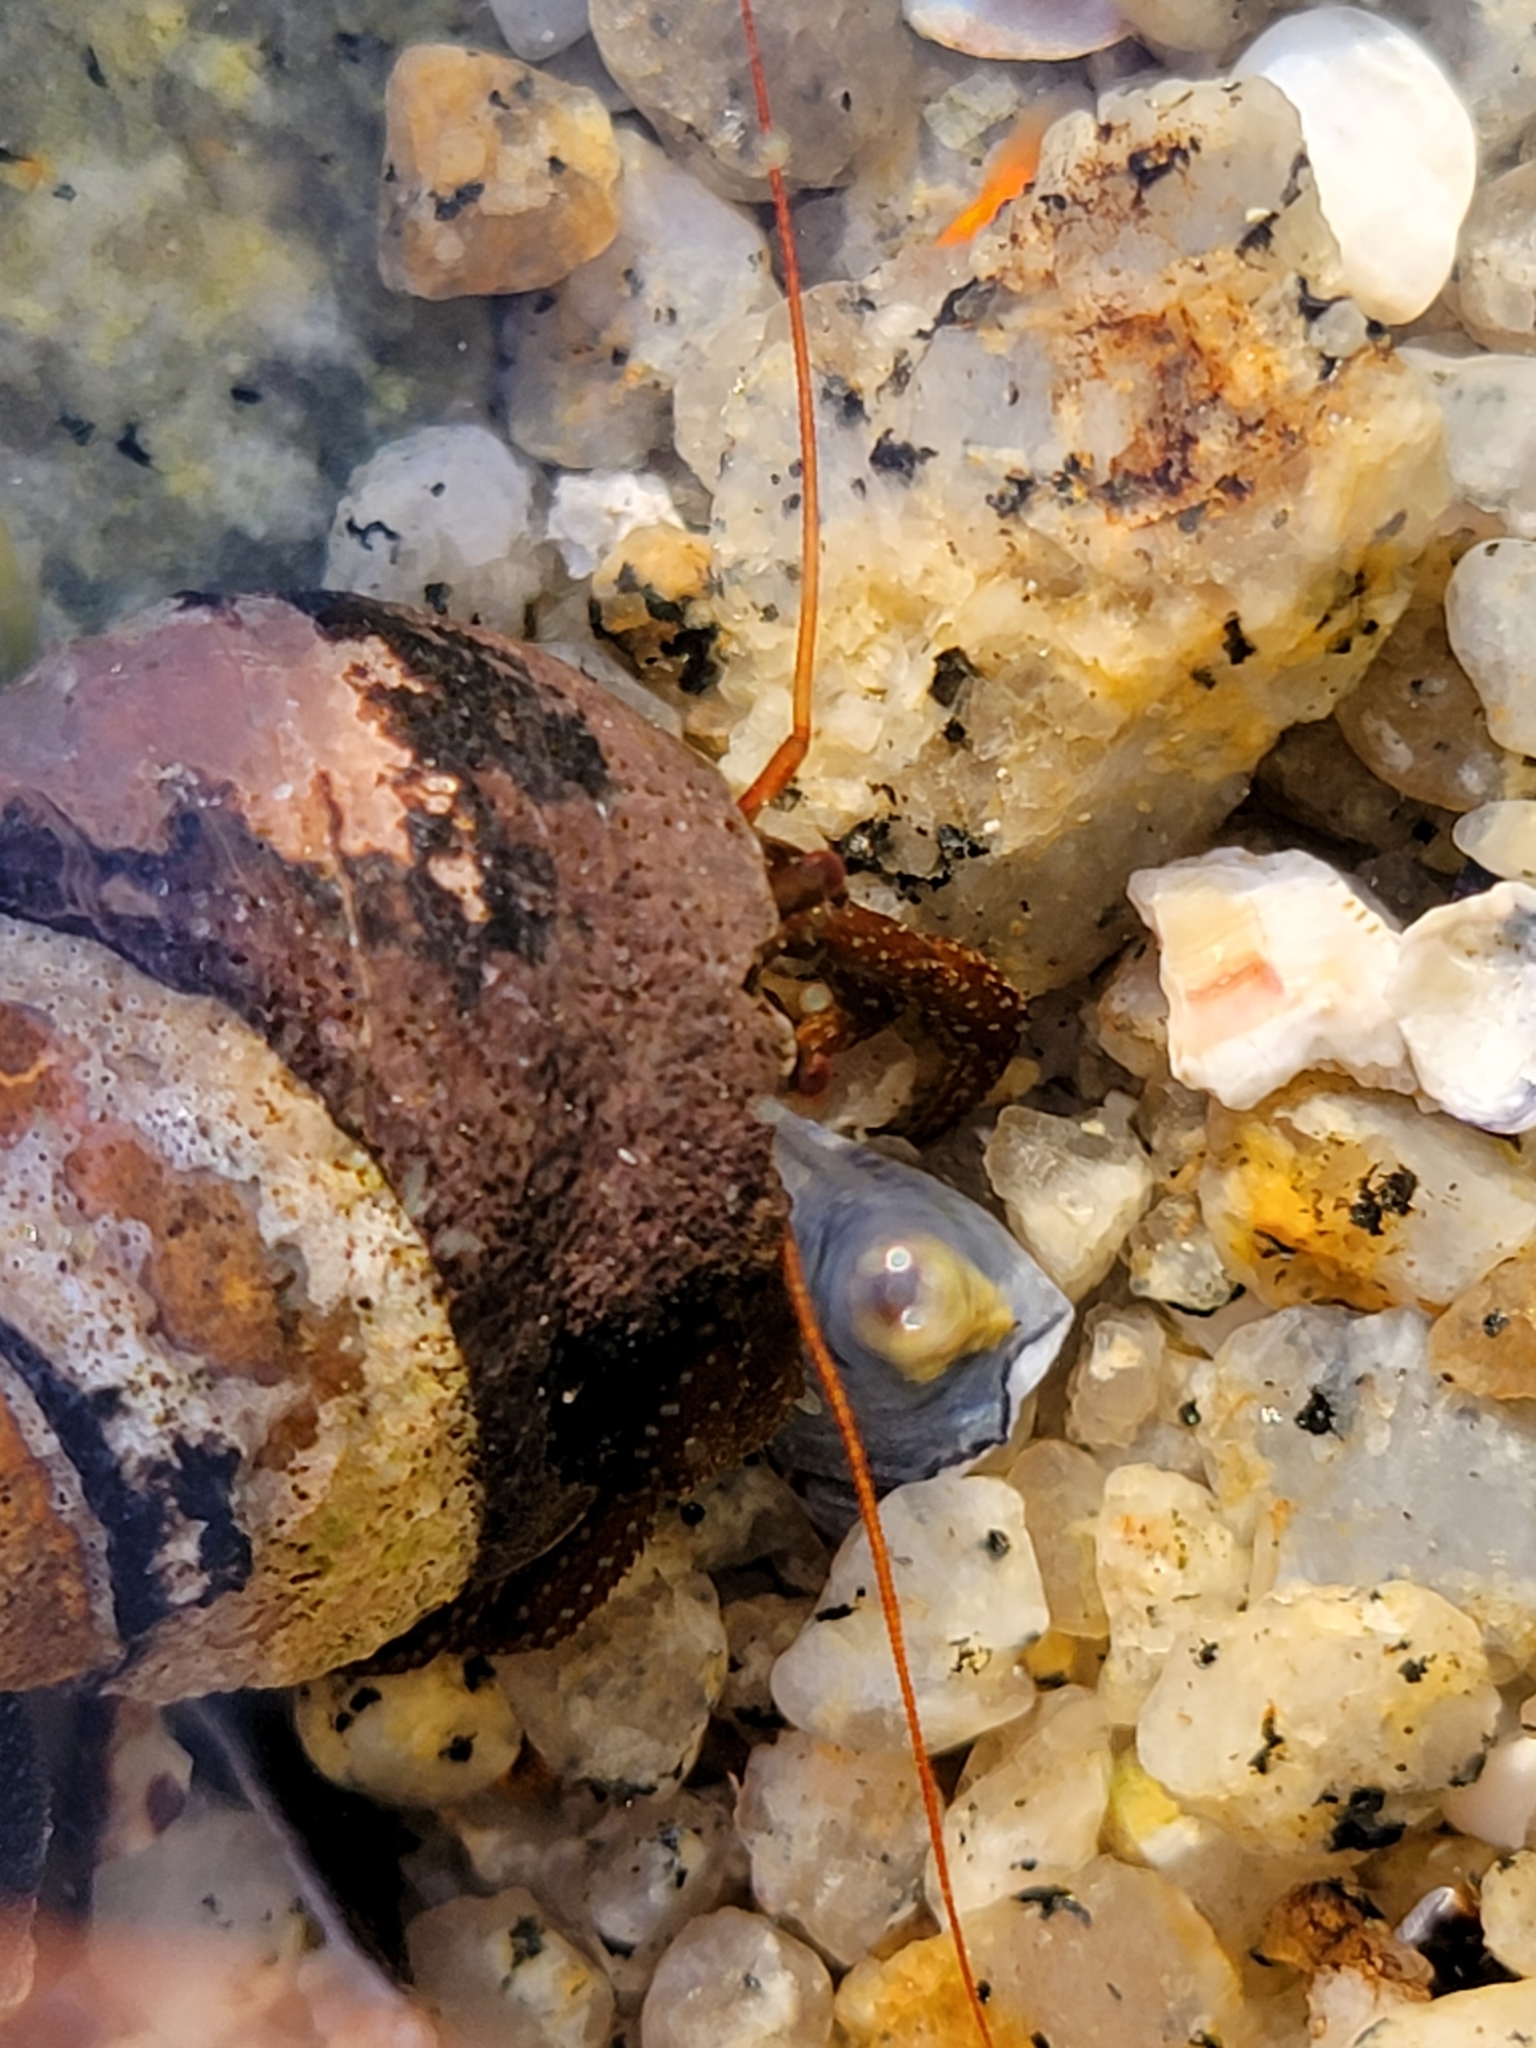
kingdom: Animalia
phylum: Arthropoda
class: Malacostraca
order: Decapoda
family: Paguridae
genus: Pagurus
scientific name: Pagurus granosimanus
